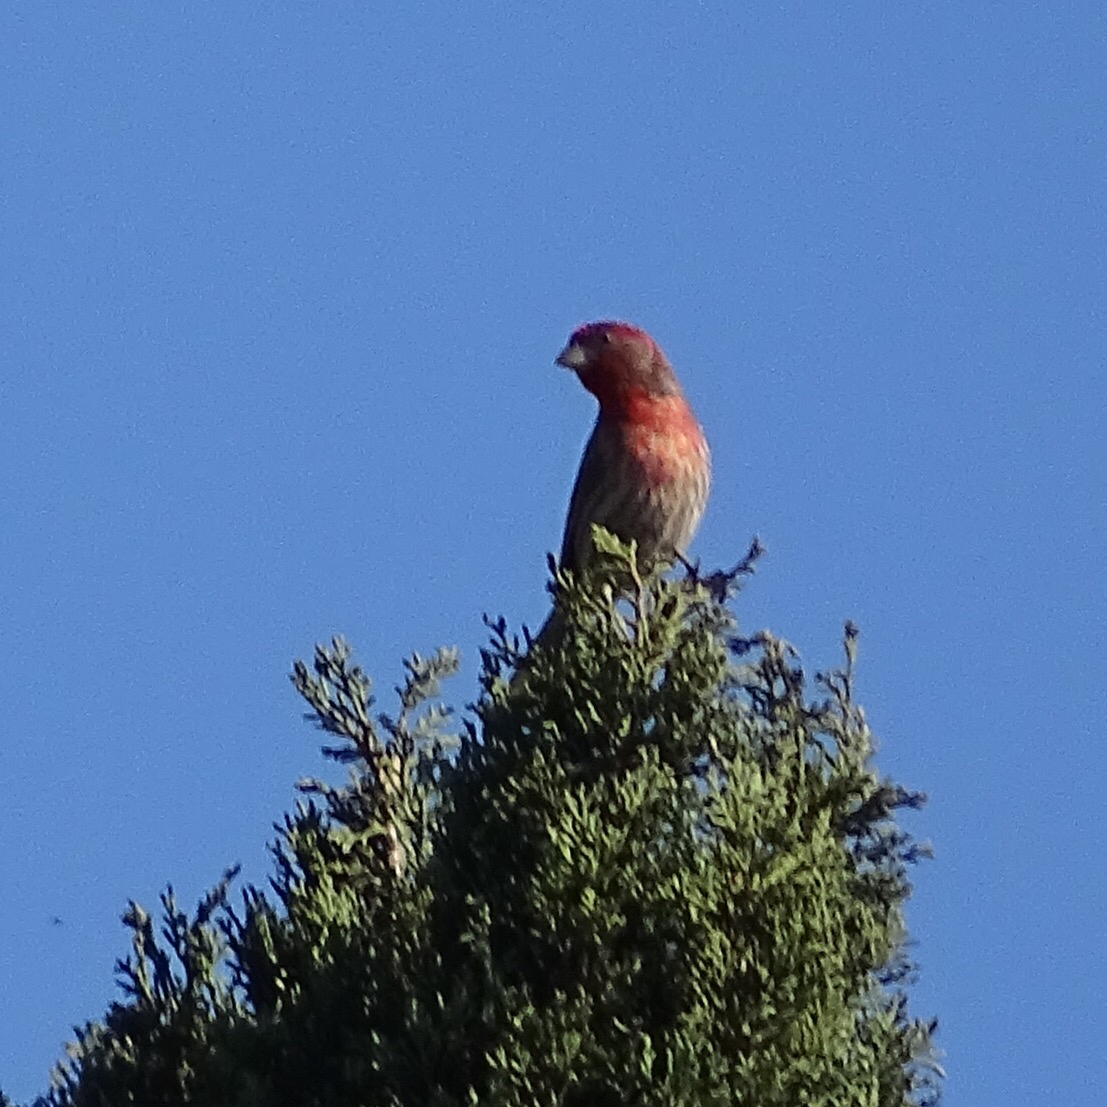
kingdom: Animalia
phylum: Chordata
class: Aves
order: Passeriformes
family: Fringillidae
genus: Haemorhous
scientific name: Haemorhous mexicanus
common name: House finch
